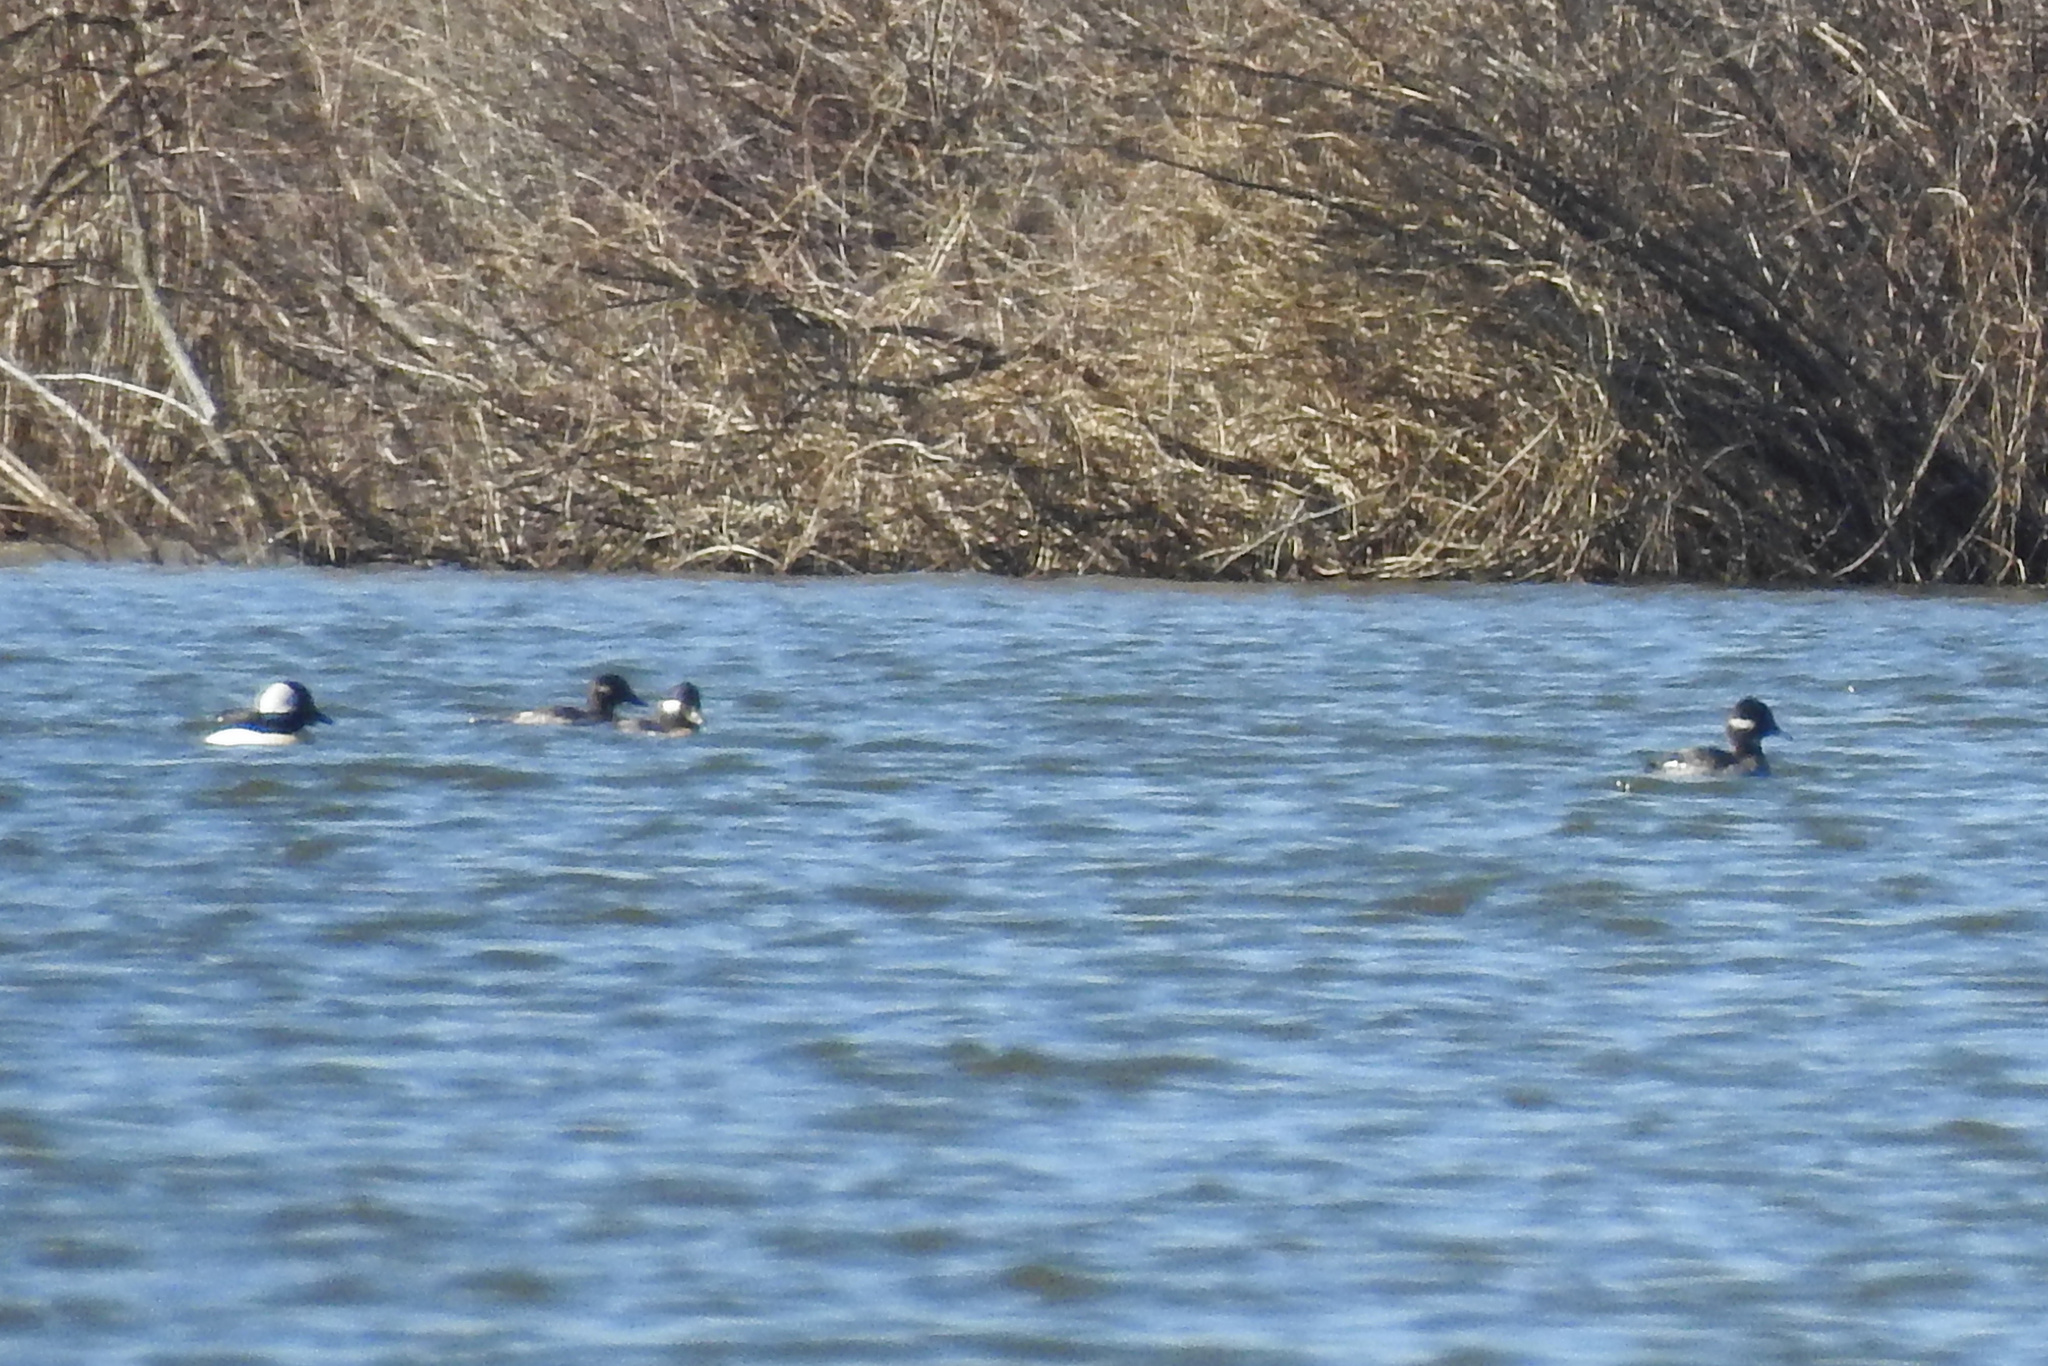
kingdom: Animalia
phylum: Chordata
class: Aves
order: Anseriformes
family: Anatidae
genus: Bucephala
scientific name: Bucephala albeola
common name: Bufflehead
